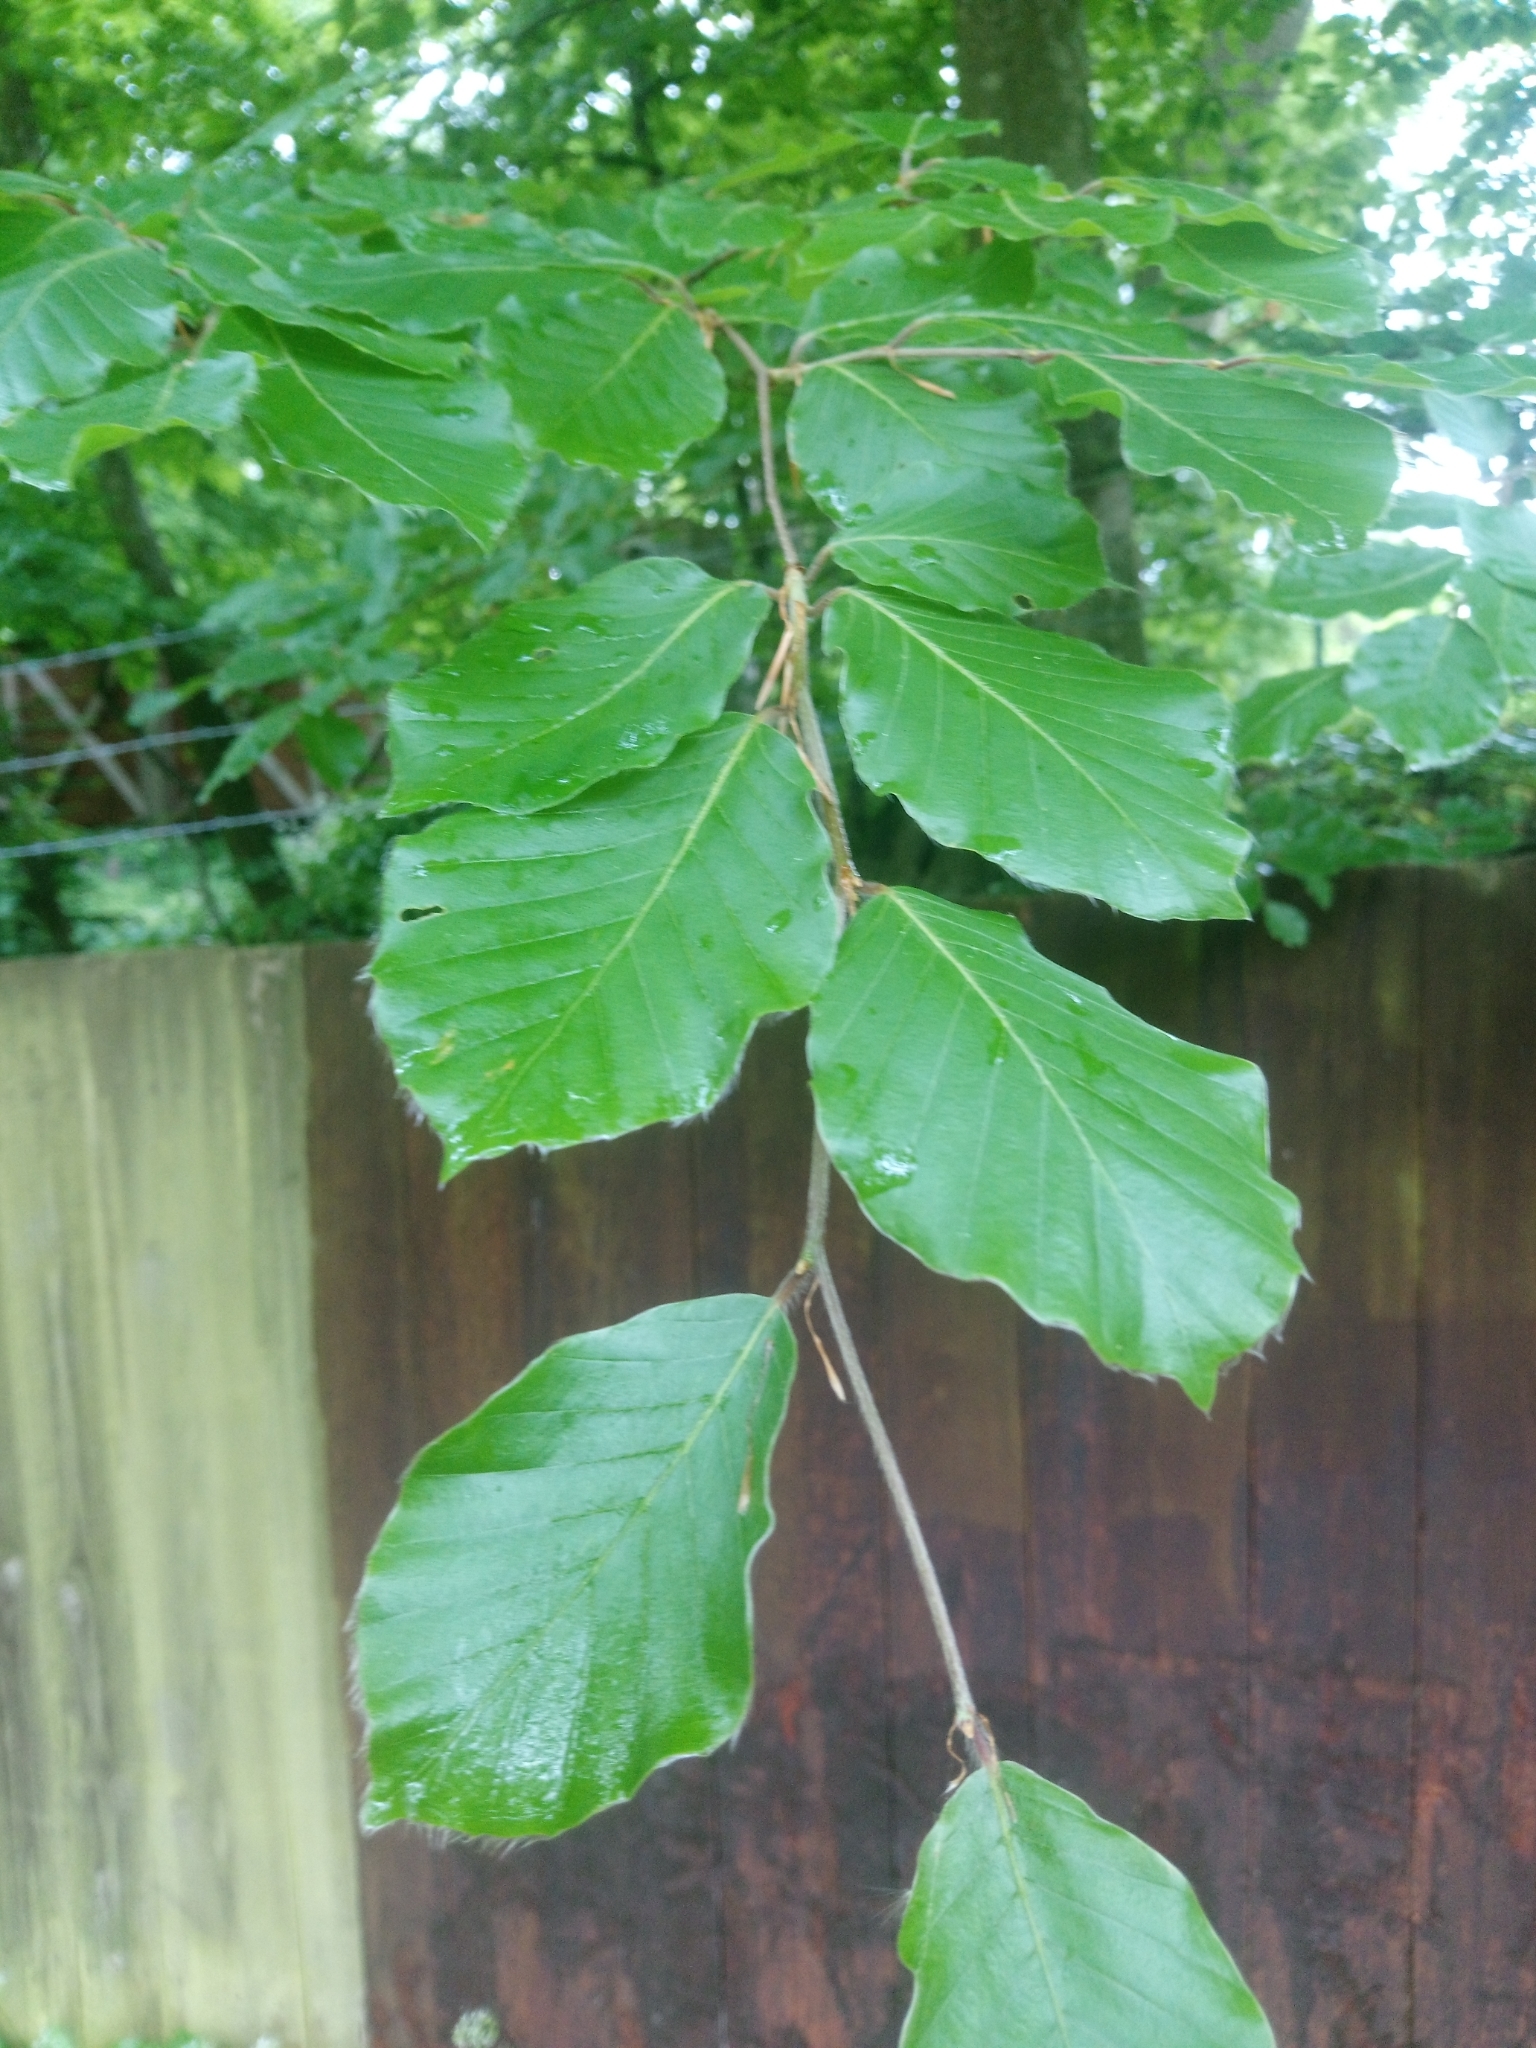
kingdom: Plantae
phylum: Tracheophyta
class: Magnoliopsida
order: Fagales
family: Fagaceae
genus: Fagus
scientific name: Fagus sylvatica
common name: Beech
